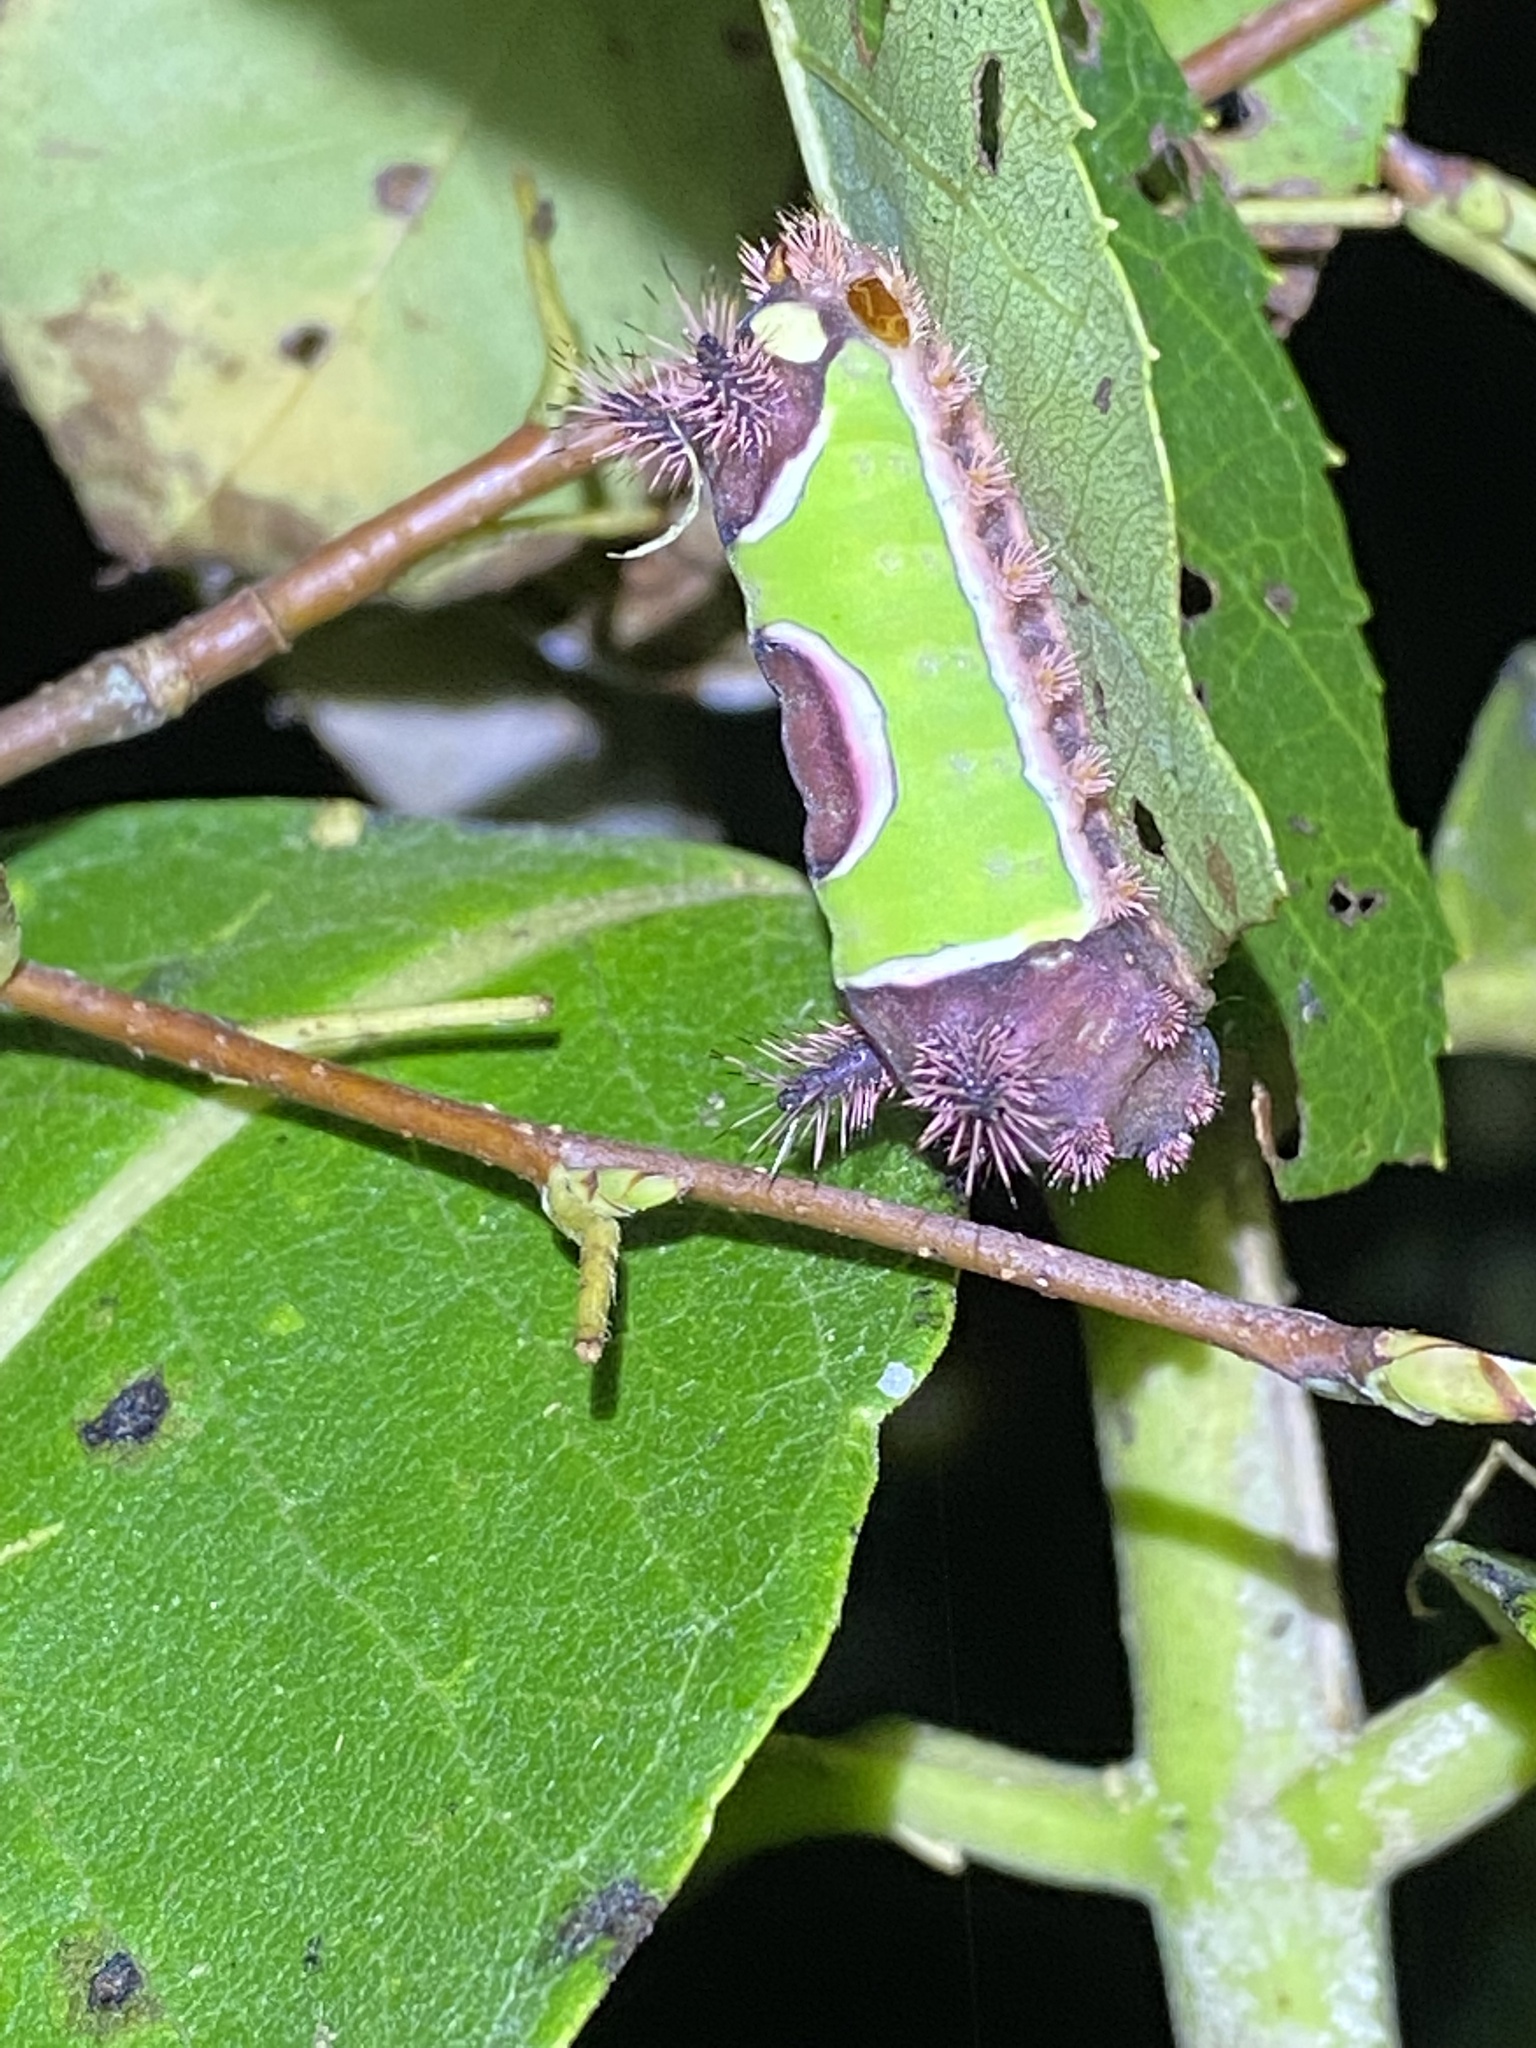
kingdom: Animalia
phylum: Arthropoda
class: Insecta
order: Lepidoptera
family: Limacodidae
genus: Acharia
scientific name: Acharia stimulea
